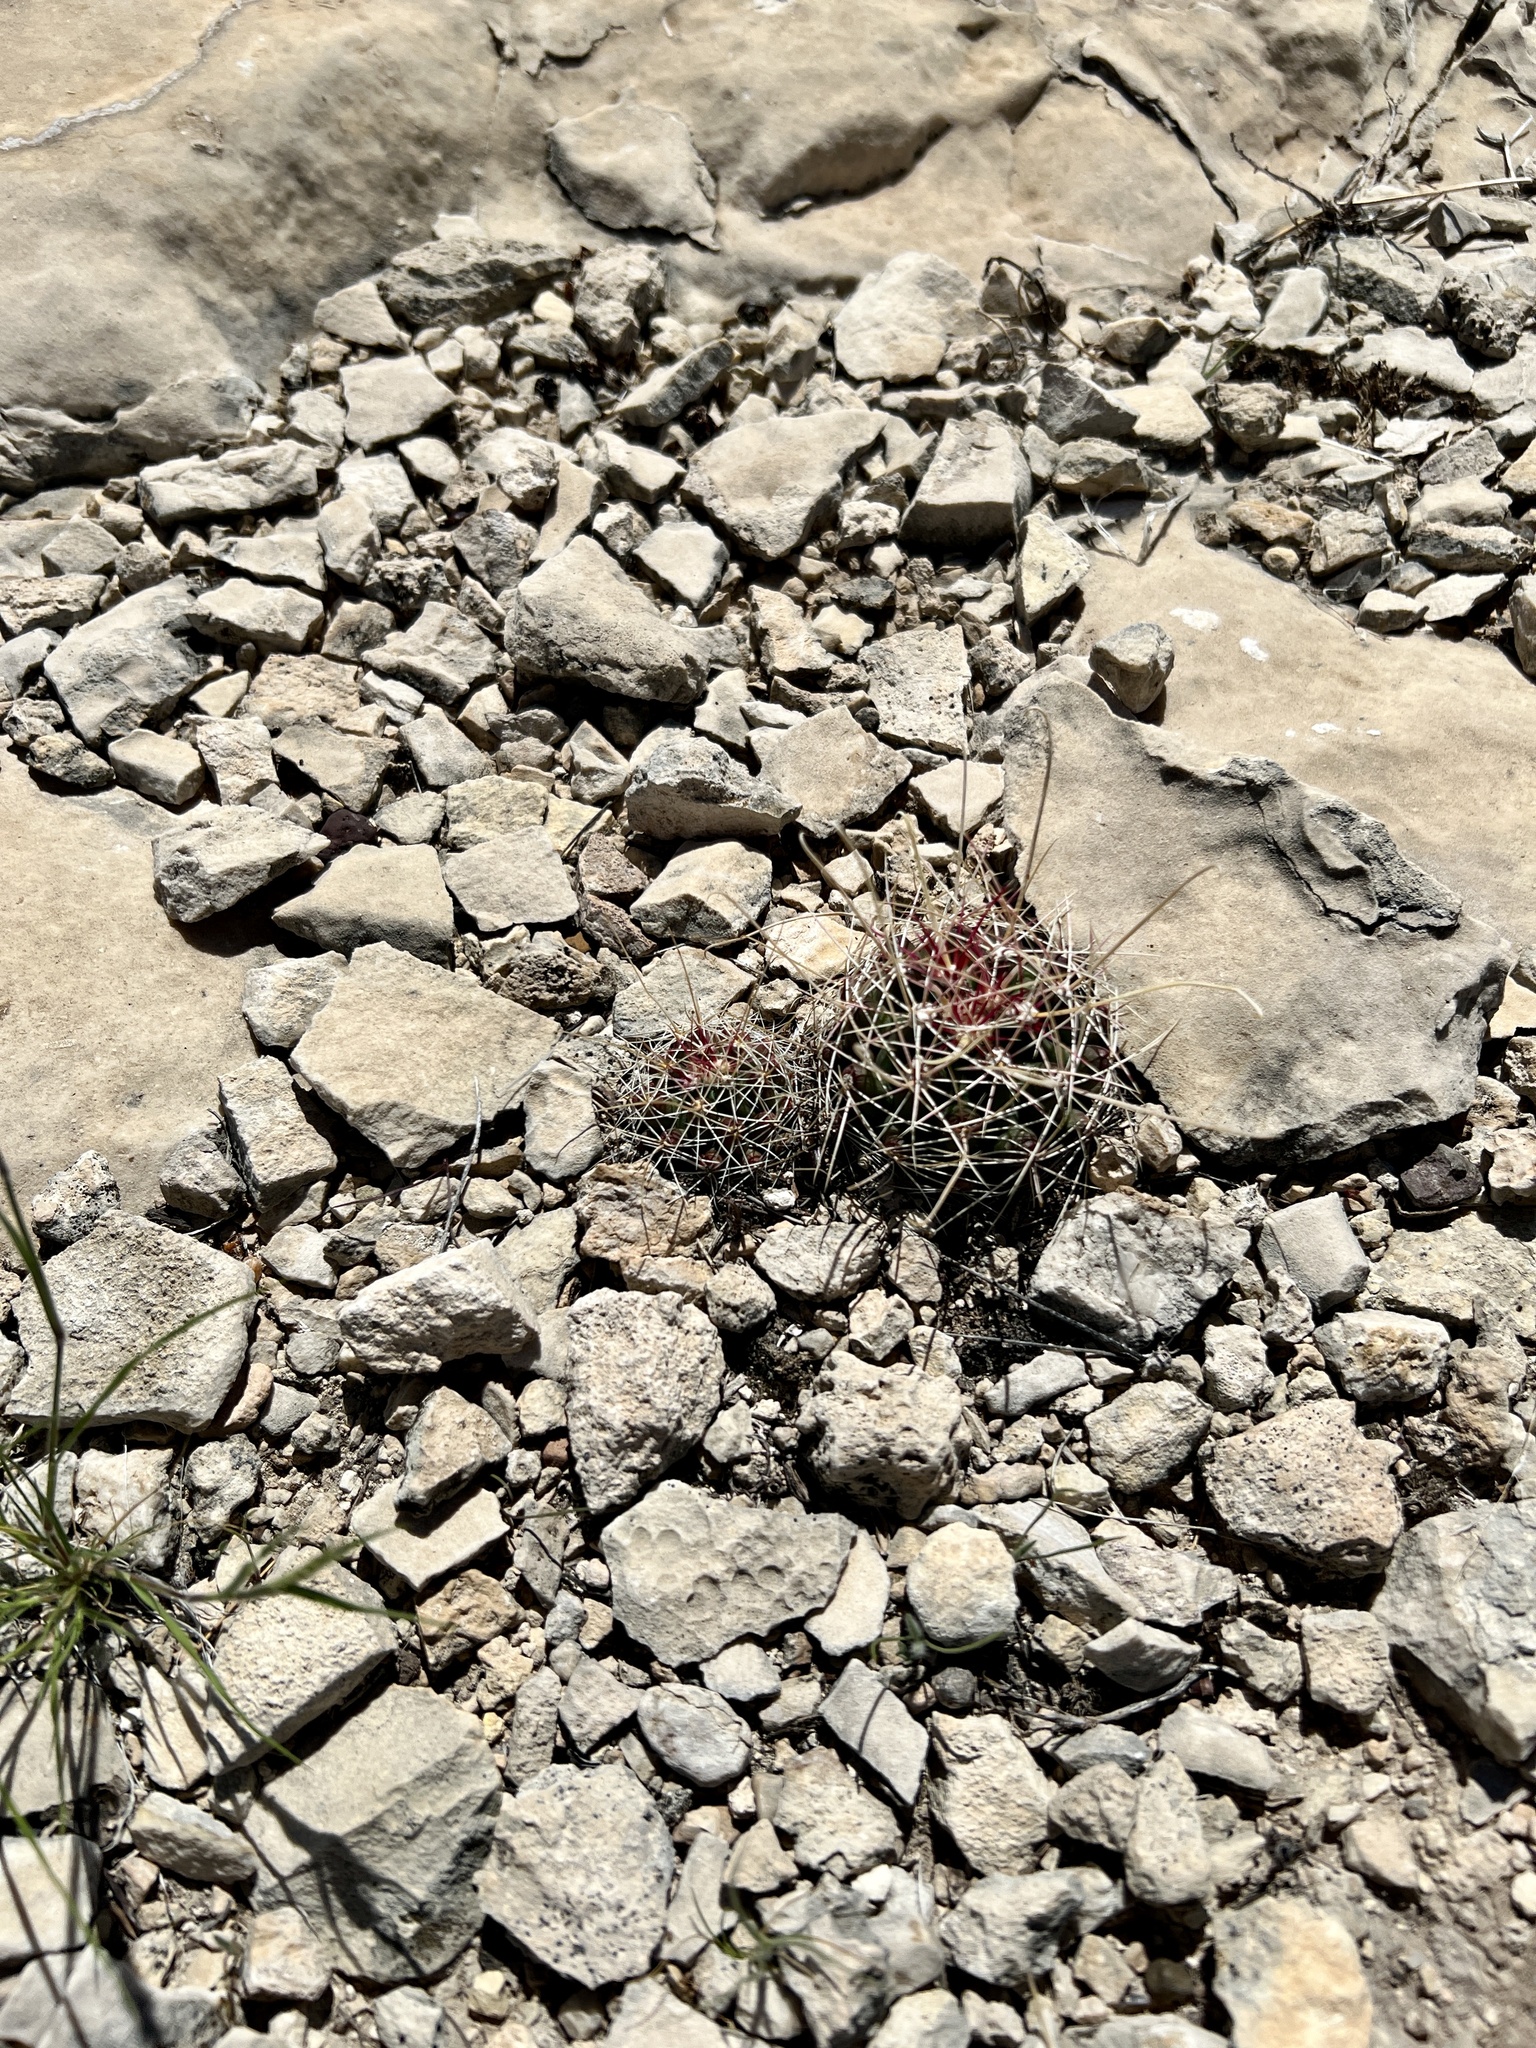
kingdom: Plantae
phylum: Tracheophyta
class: Magnoliopsida
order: Caryophyllales
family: Cactaceae
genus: Bisnaga
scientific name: Bisnaga hamatacantha
